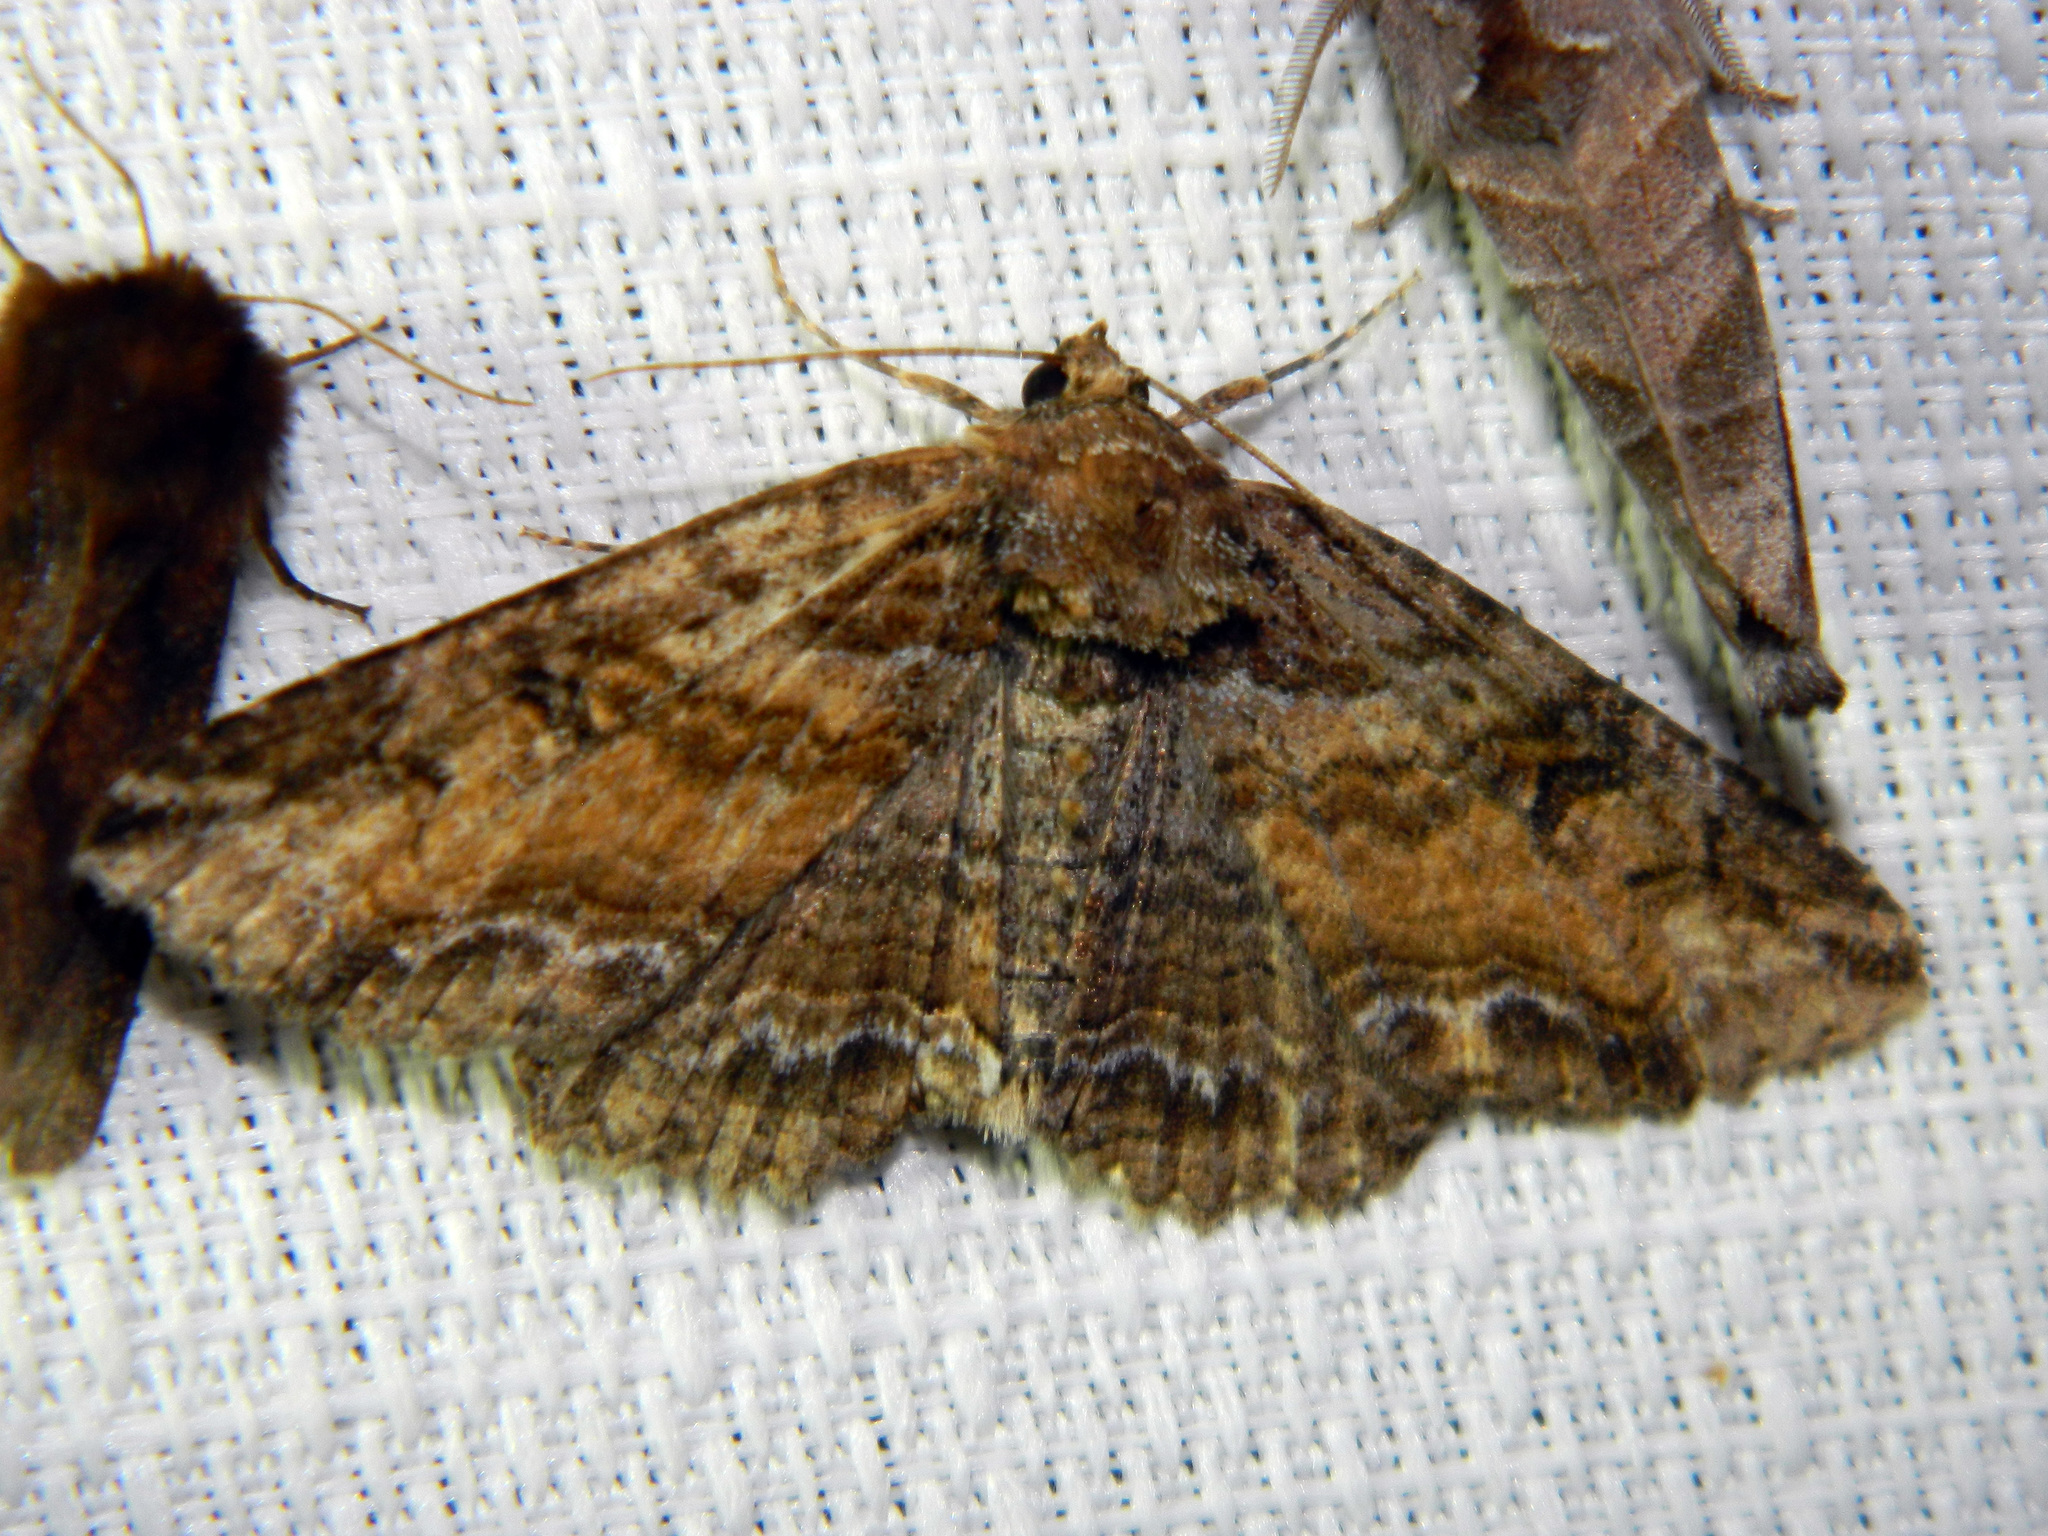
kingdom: Animalia
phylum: Arthropoda
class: Insecta
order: Lepidoptera
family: Erebidae
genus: Zale
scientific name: Zale minerea
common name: Colorful zale moth
